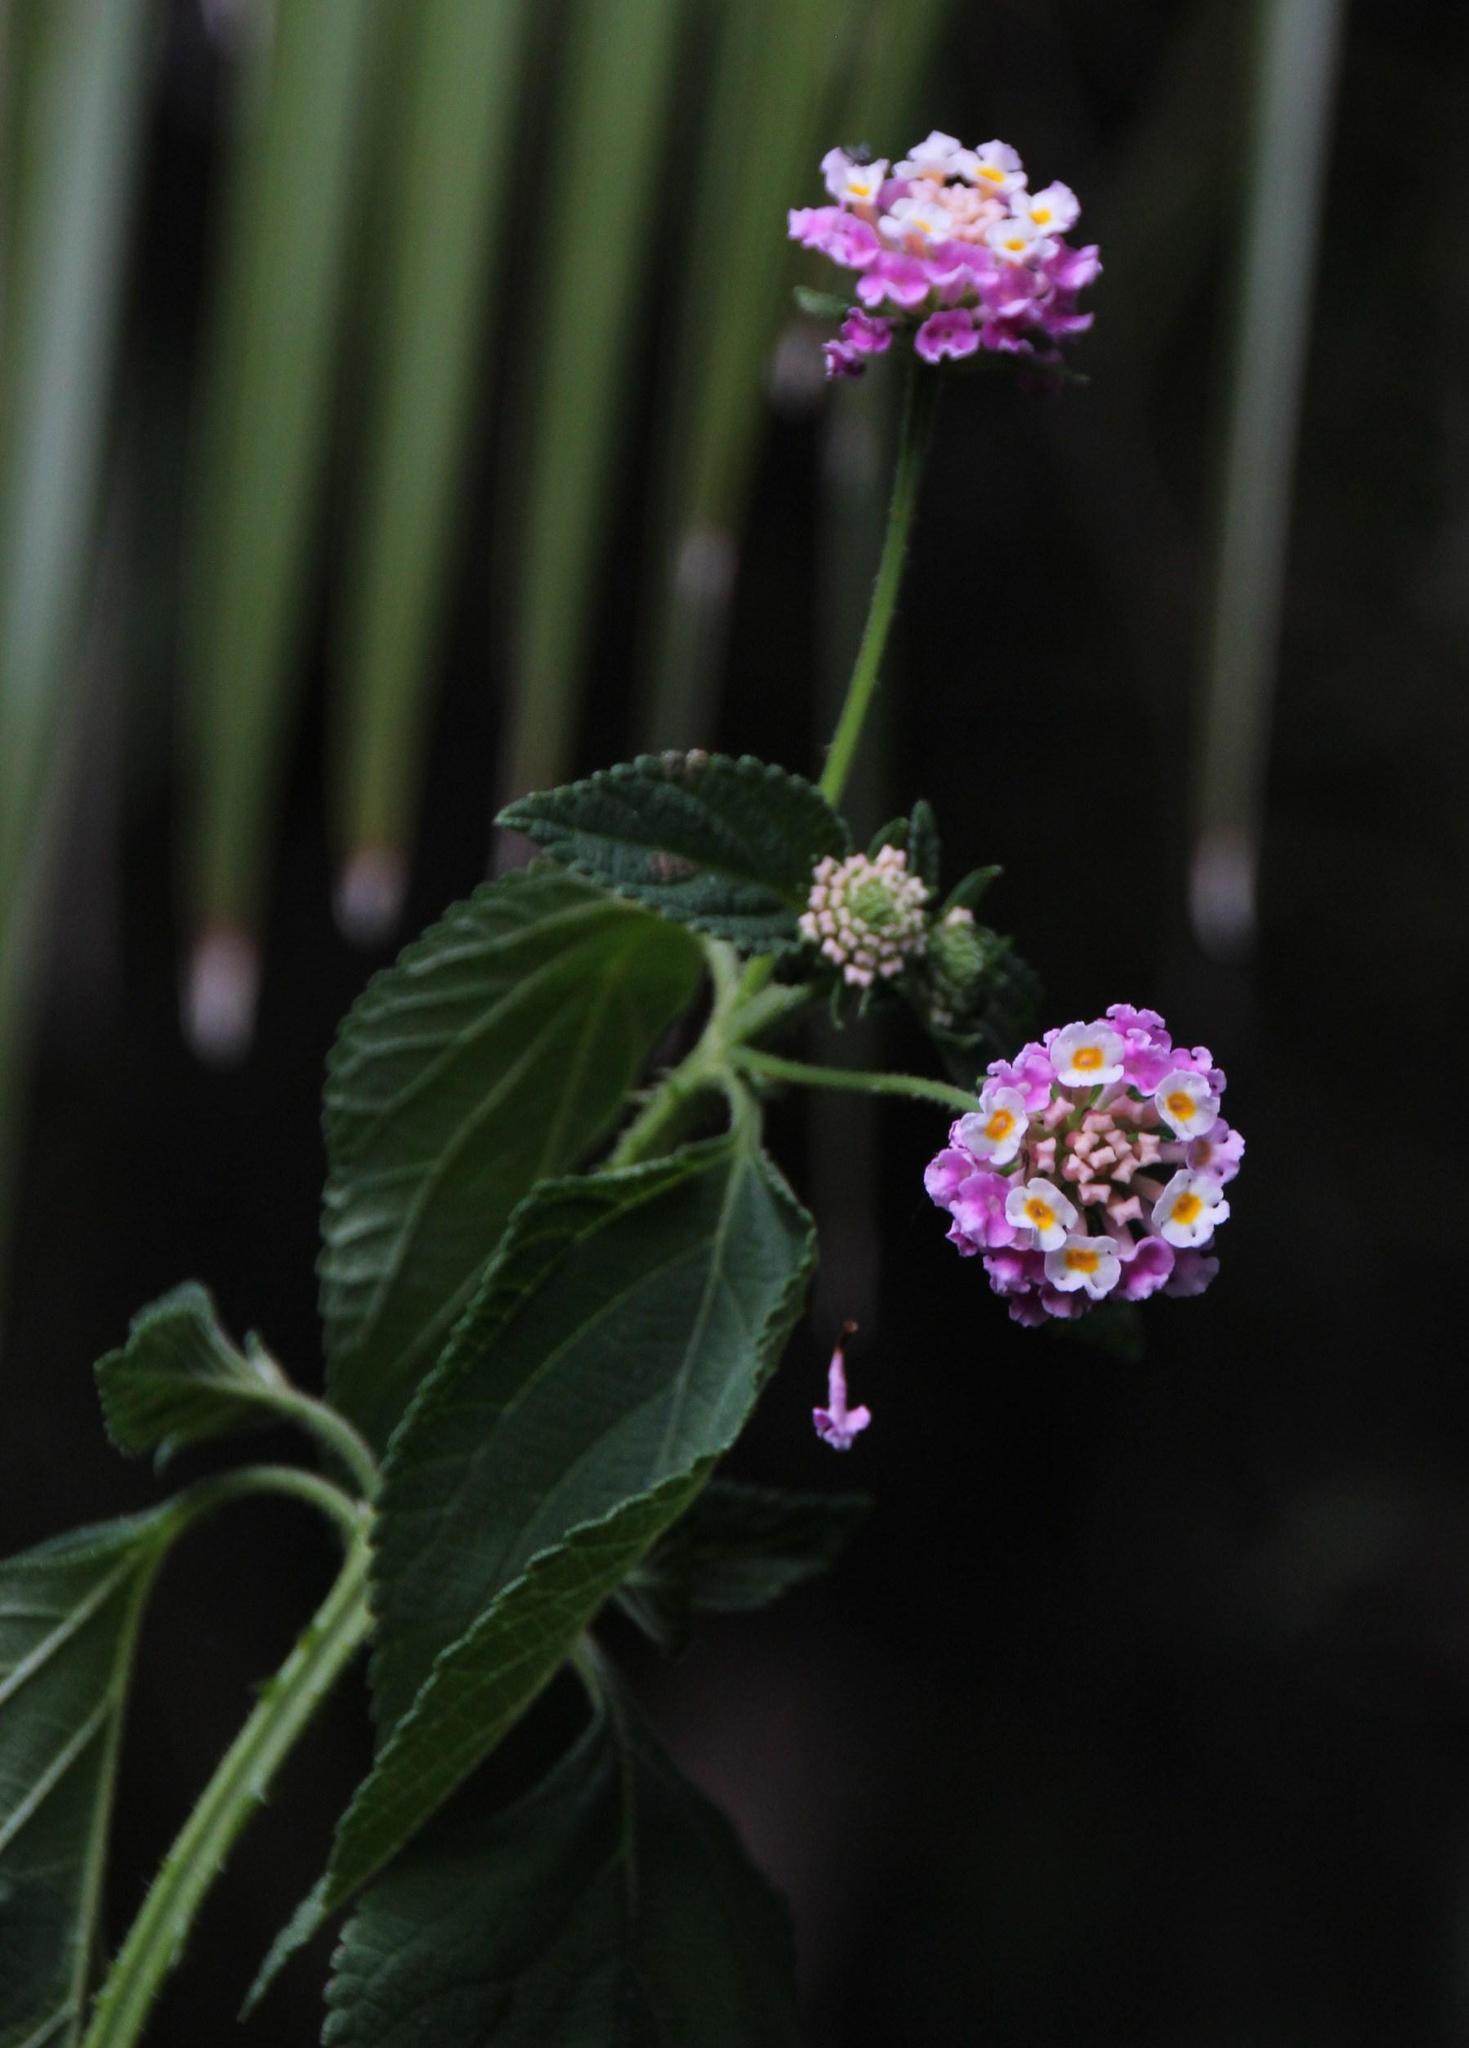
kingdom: Plantae
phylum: Tracheophyta
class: Magnoliopsida
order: Lamiales
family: Verbenaceae
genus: Lantana
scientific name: Lantana camara
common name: Lantana
